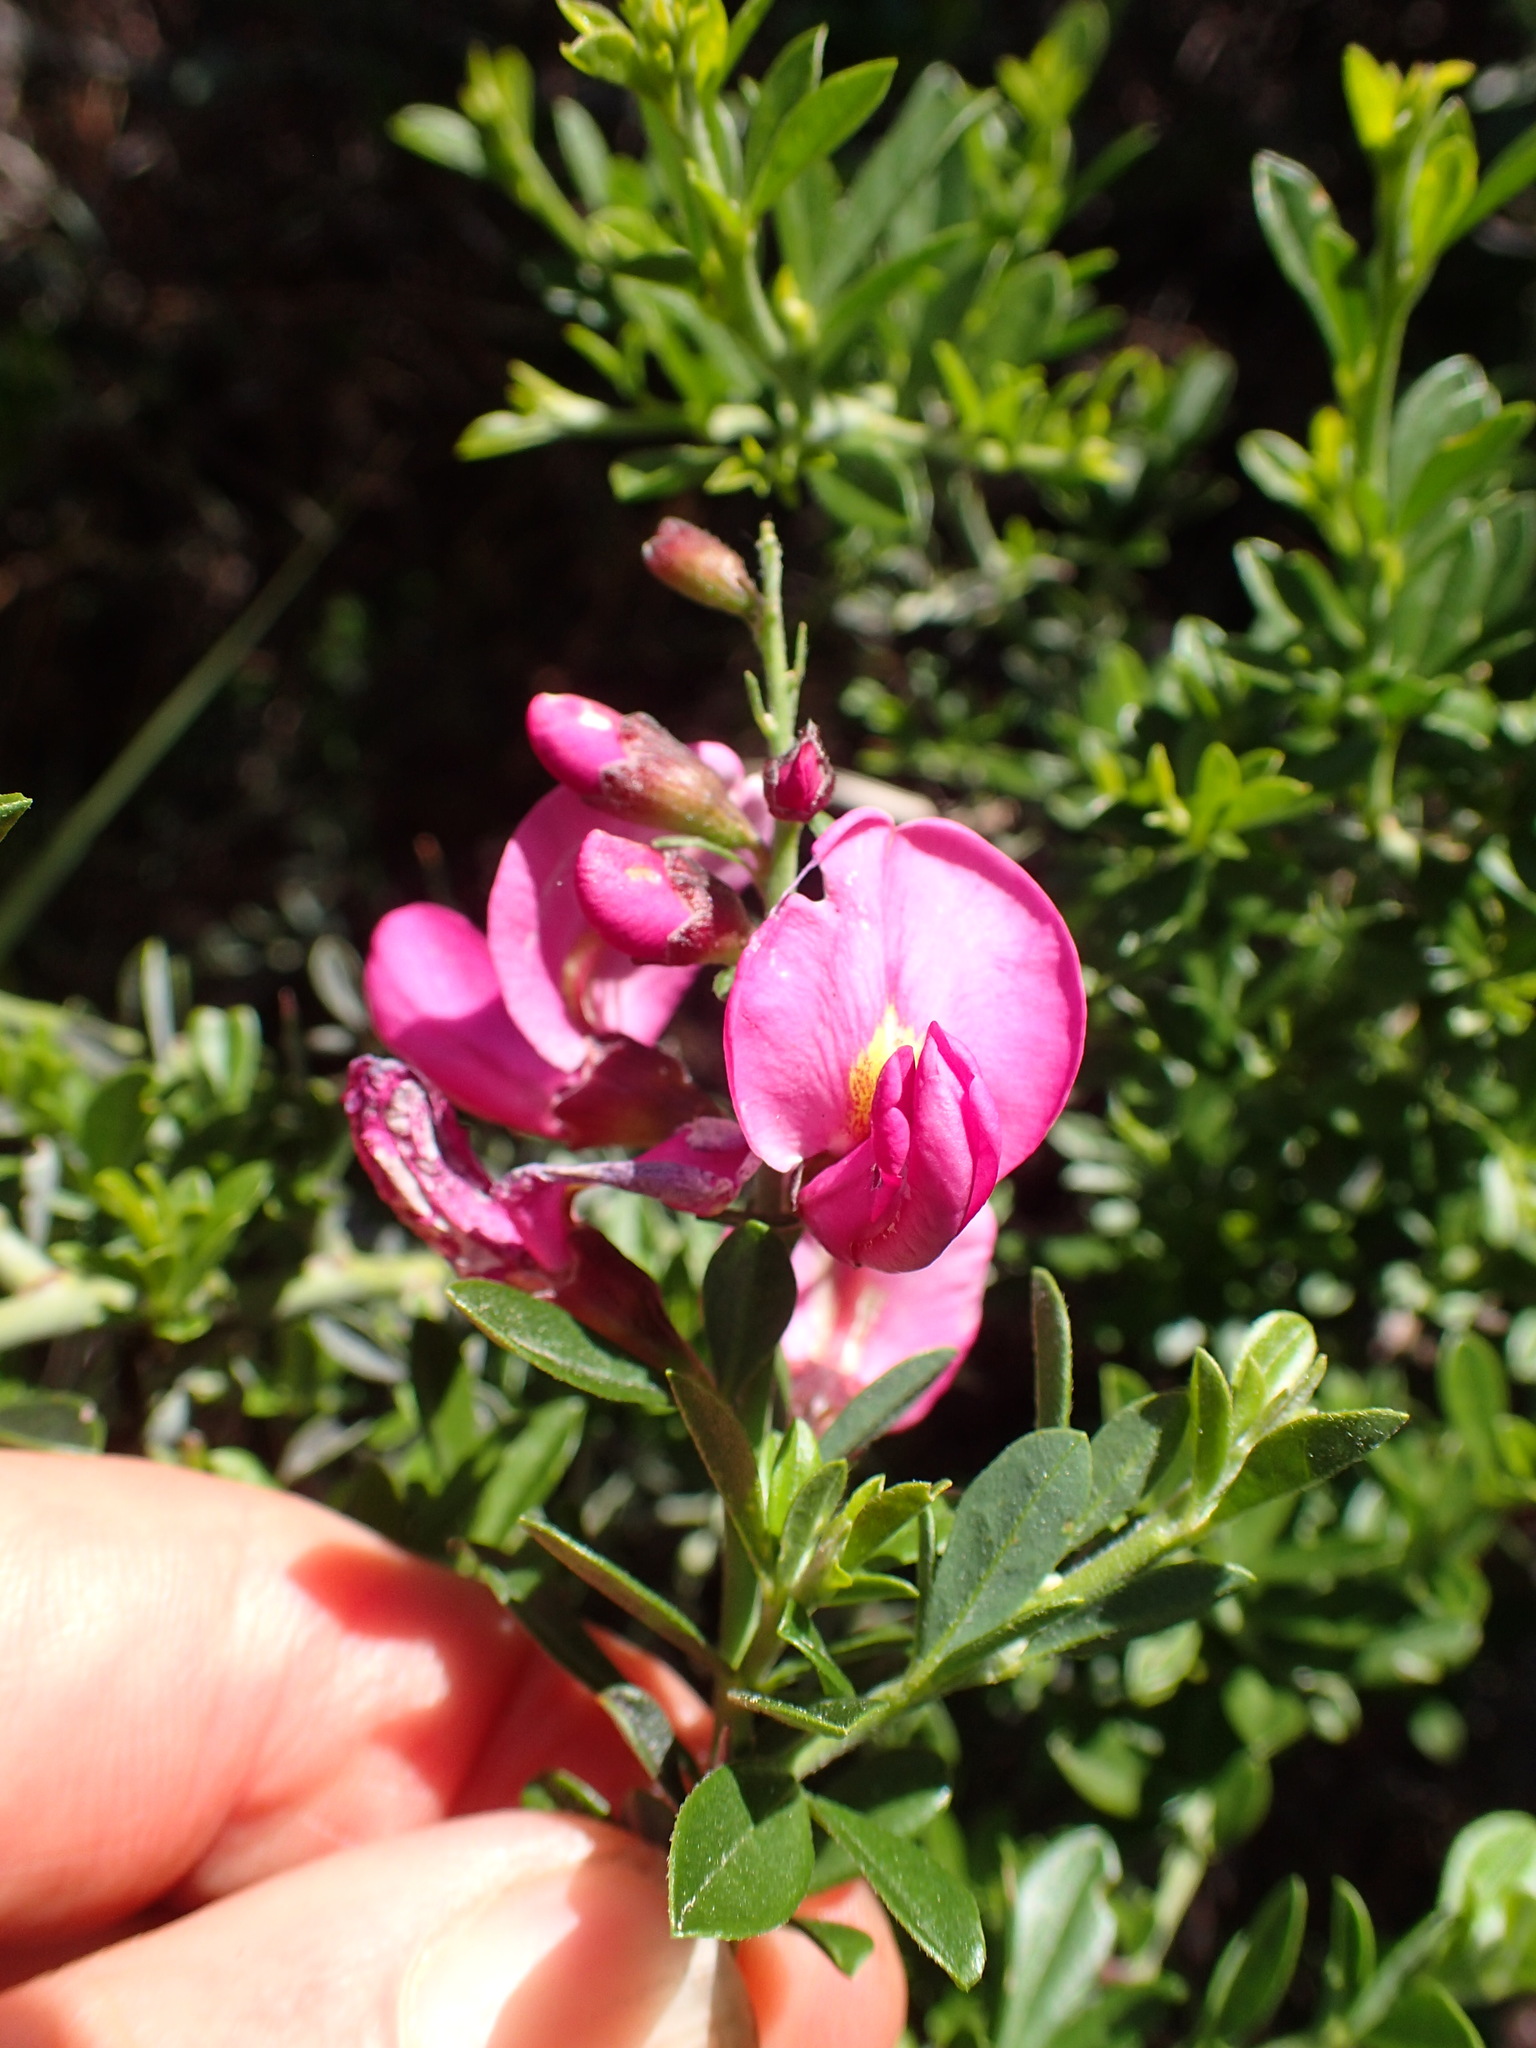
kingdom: Plantae
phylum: Tracheophyta
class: Magnoliopsida
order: Fabales
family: Fabaceae
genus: Pickeringia
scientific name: Pickeringia montana
